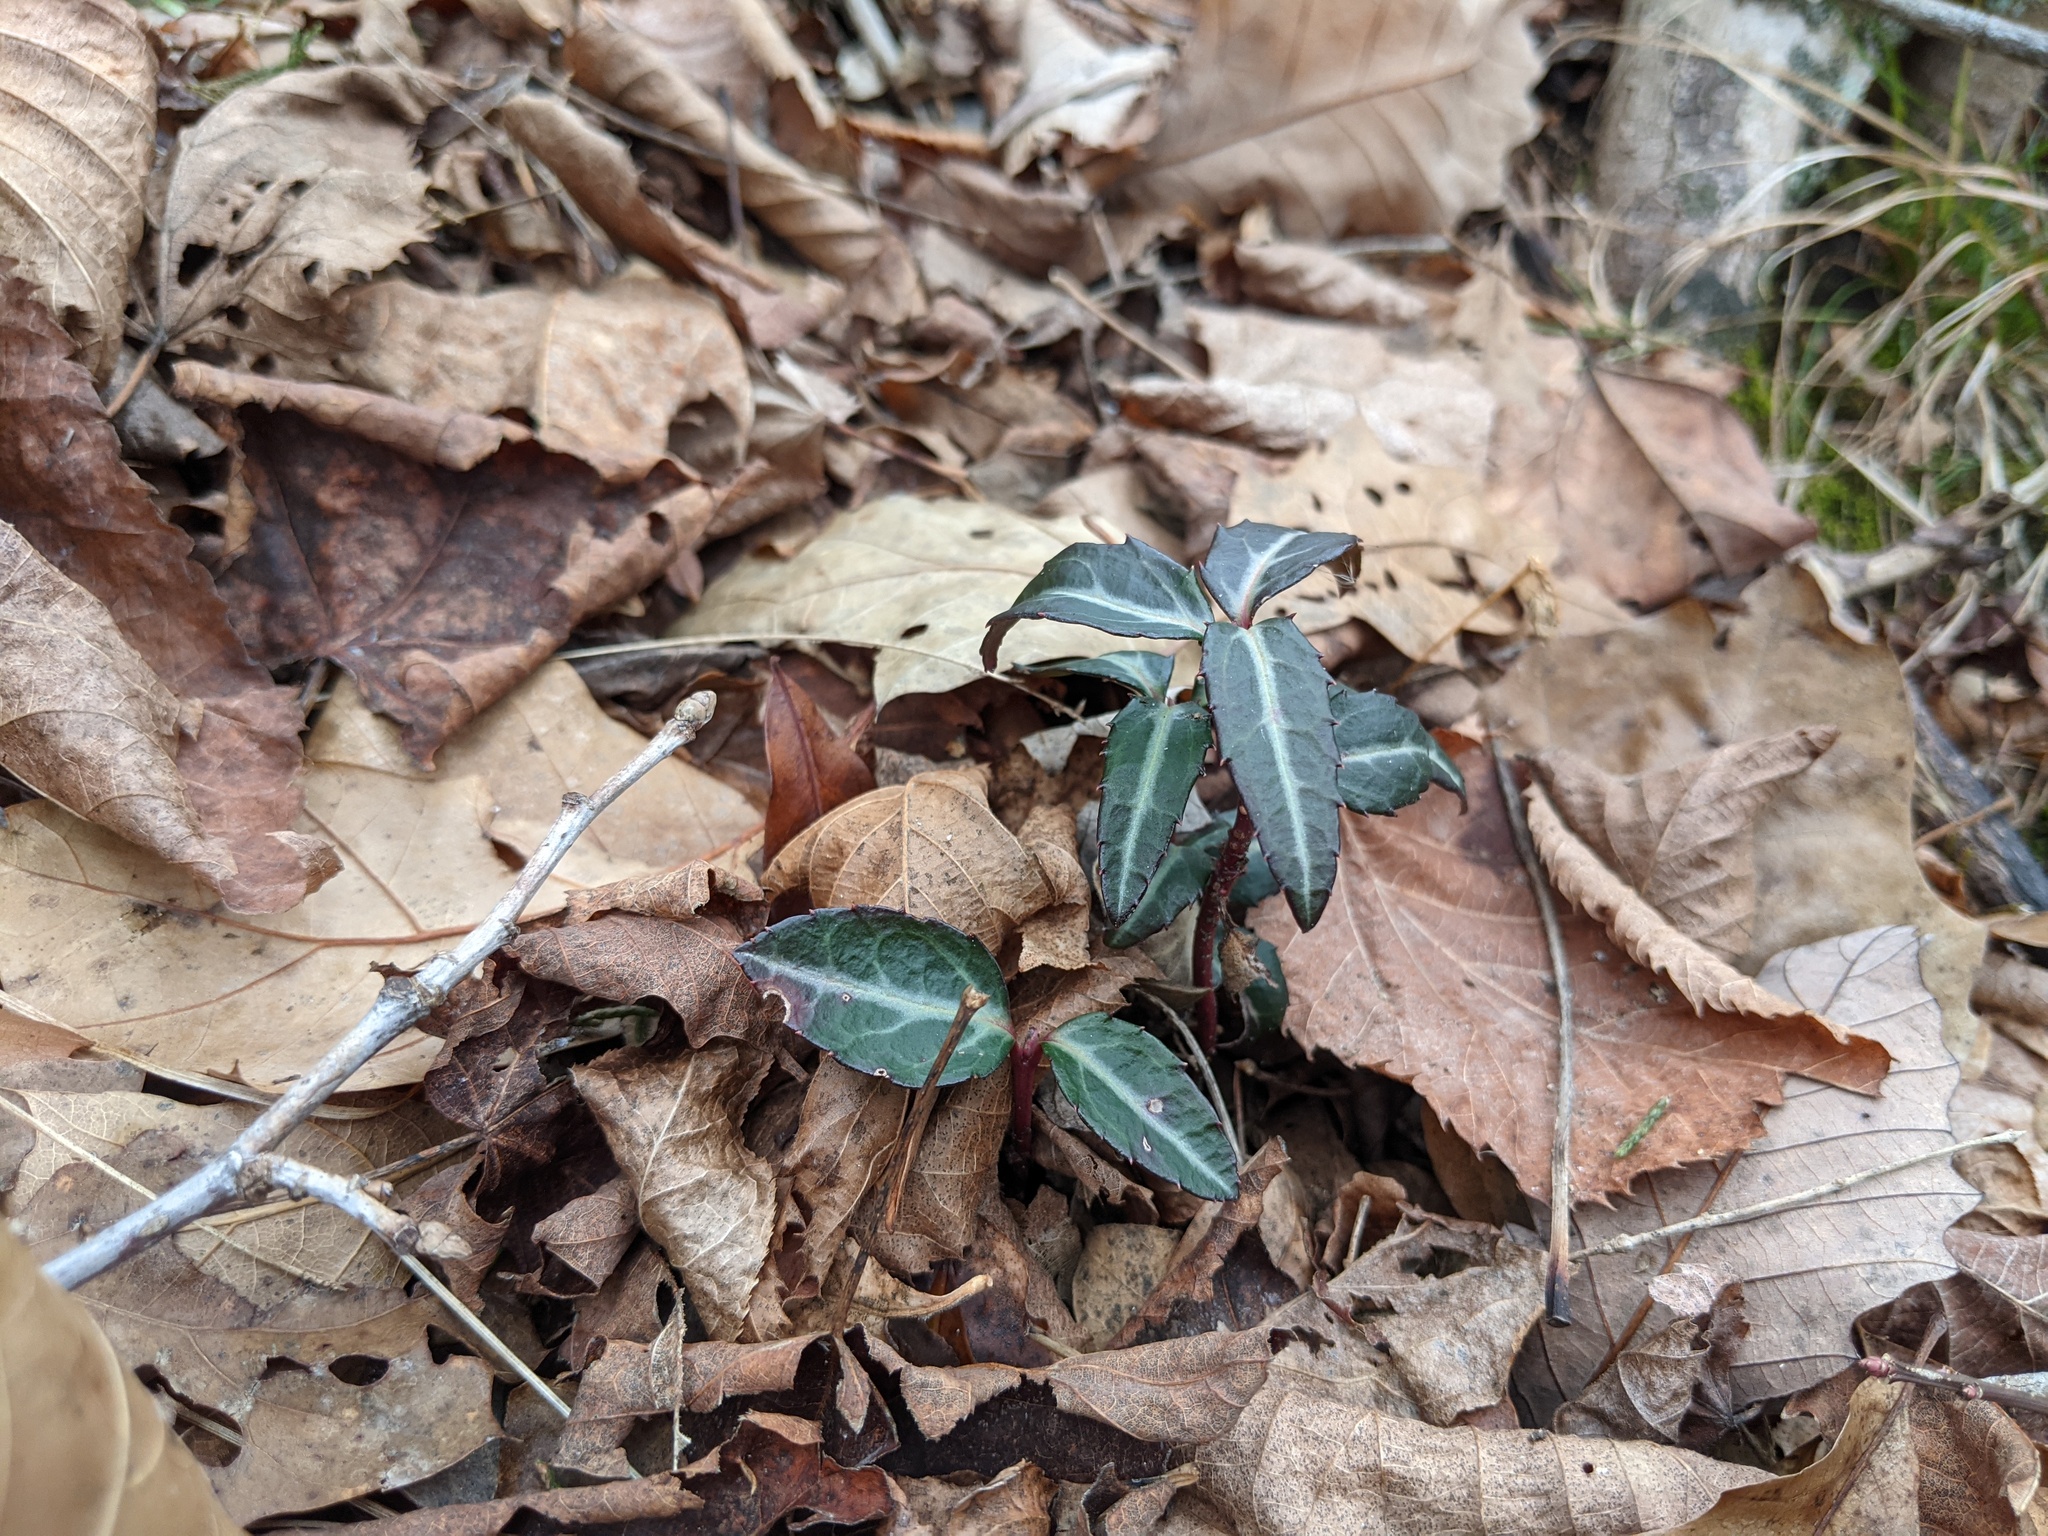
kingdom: Plantae
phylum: Tracheophyta
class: Magnoliopsida
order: Ericales
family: Ericaceae
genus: Chimaphila
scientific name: Chimaphila maculata
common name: Spotted pipsissewa
